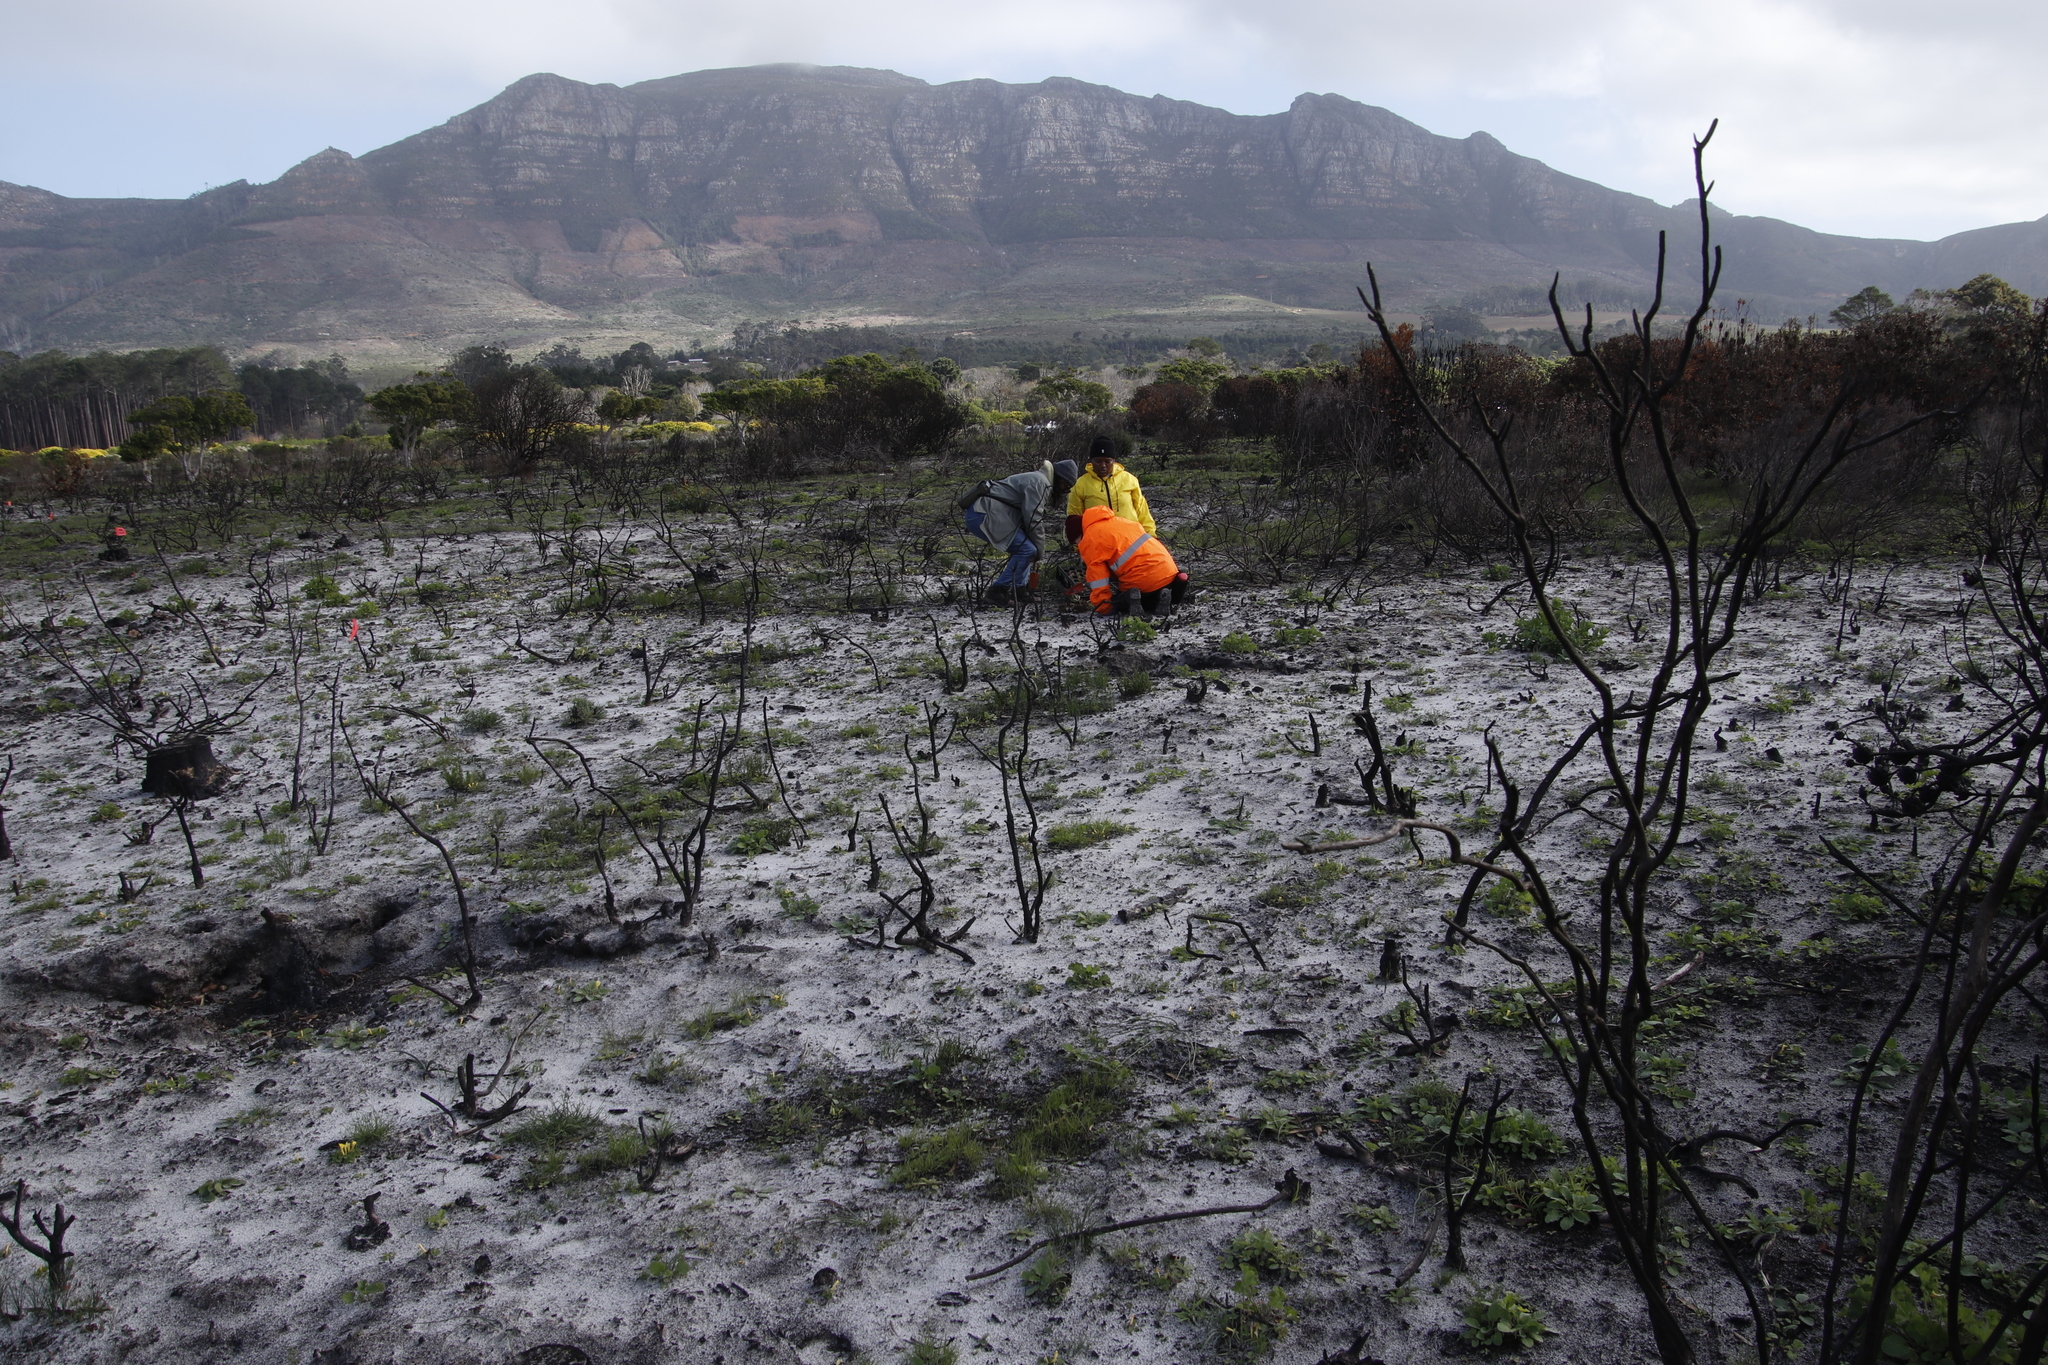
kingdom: Plantae
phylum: Tracheophyta
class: Magnoliopsida
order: Geraniales
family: Geraniaceae
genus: Pelargonium
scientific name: Pelargonium althaeoides
